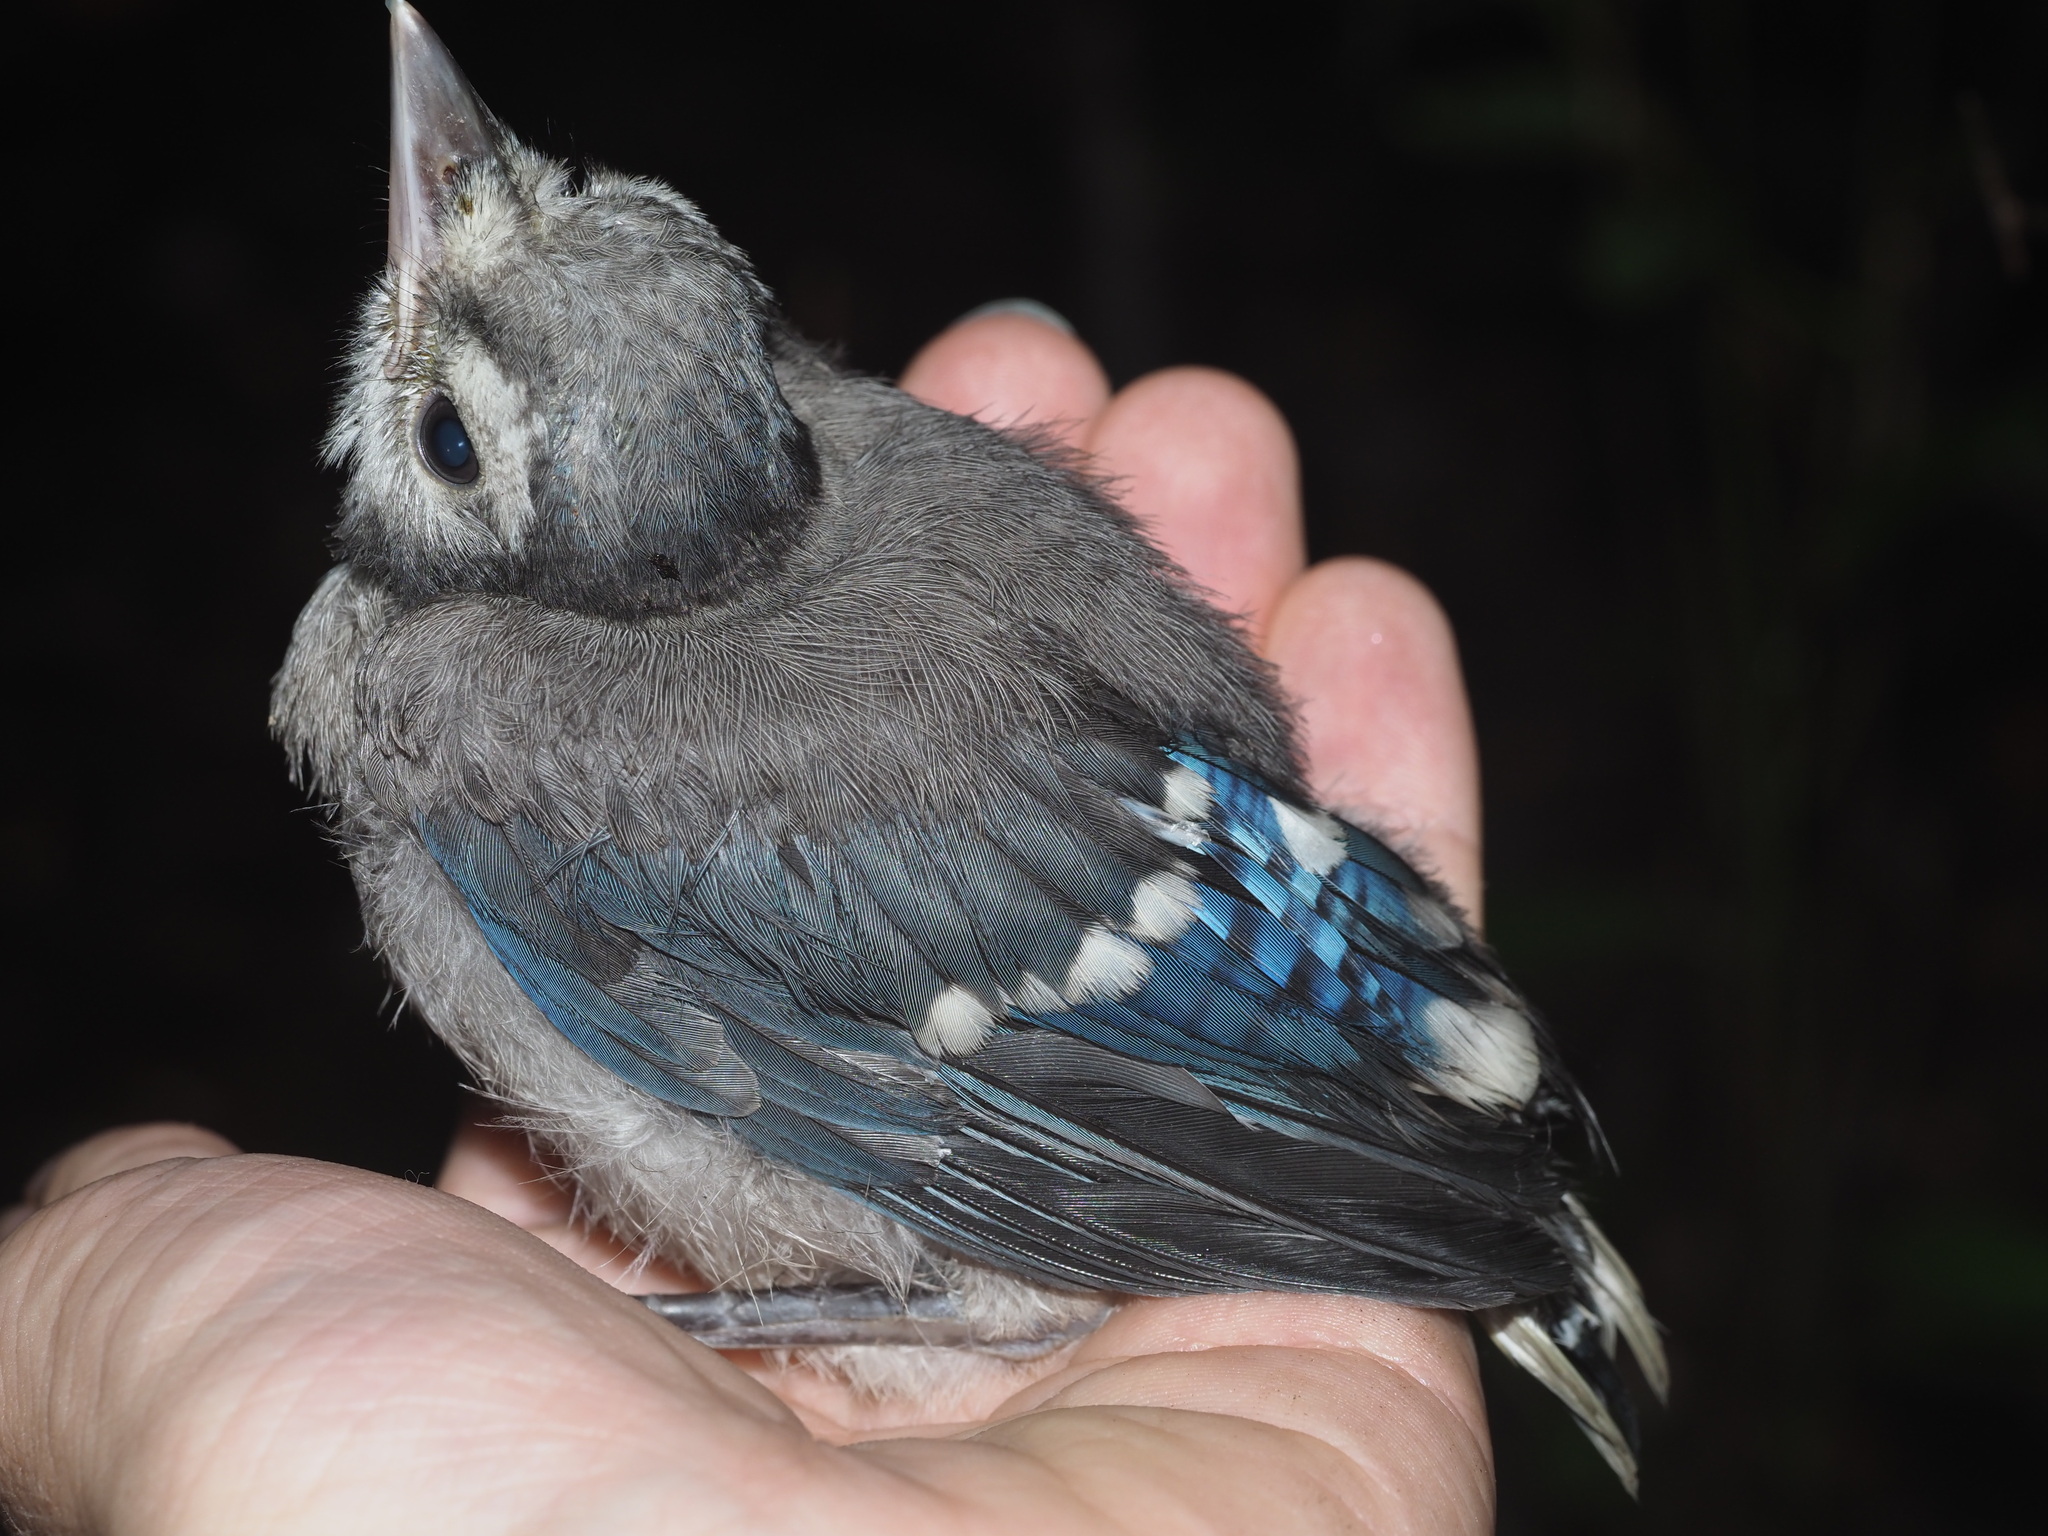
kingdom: Animalia
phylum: Chordata
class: Aves
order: Passeriformes
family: Corvidae
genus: Cyanocitta
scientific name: Cyanocitta cristata
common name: Blue jay
